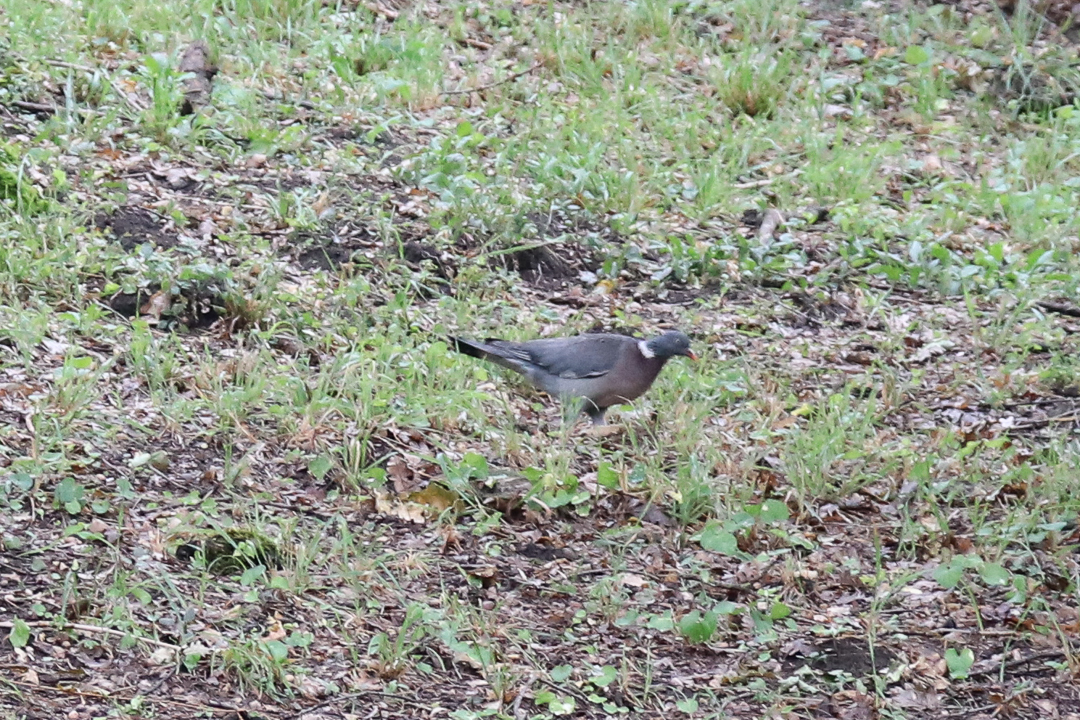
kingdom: Animalia
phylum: Chordata
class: Aves
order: Columbiformes
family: Columbidae
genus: Columba
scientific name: Columba palumbus
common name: Common wood pigeon
